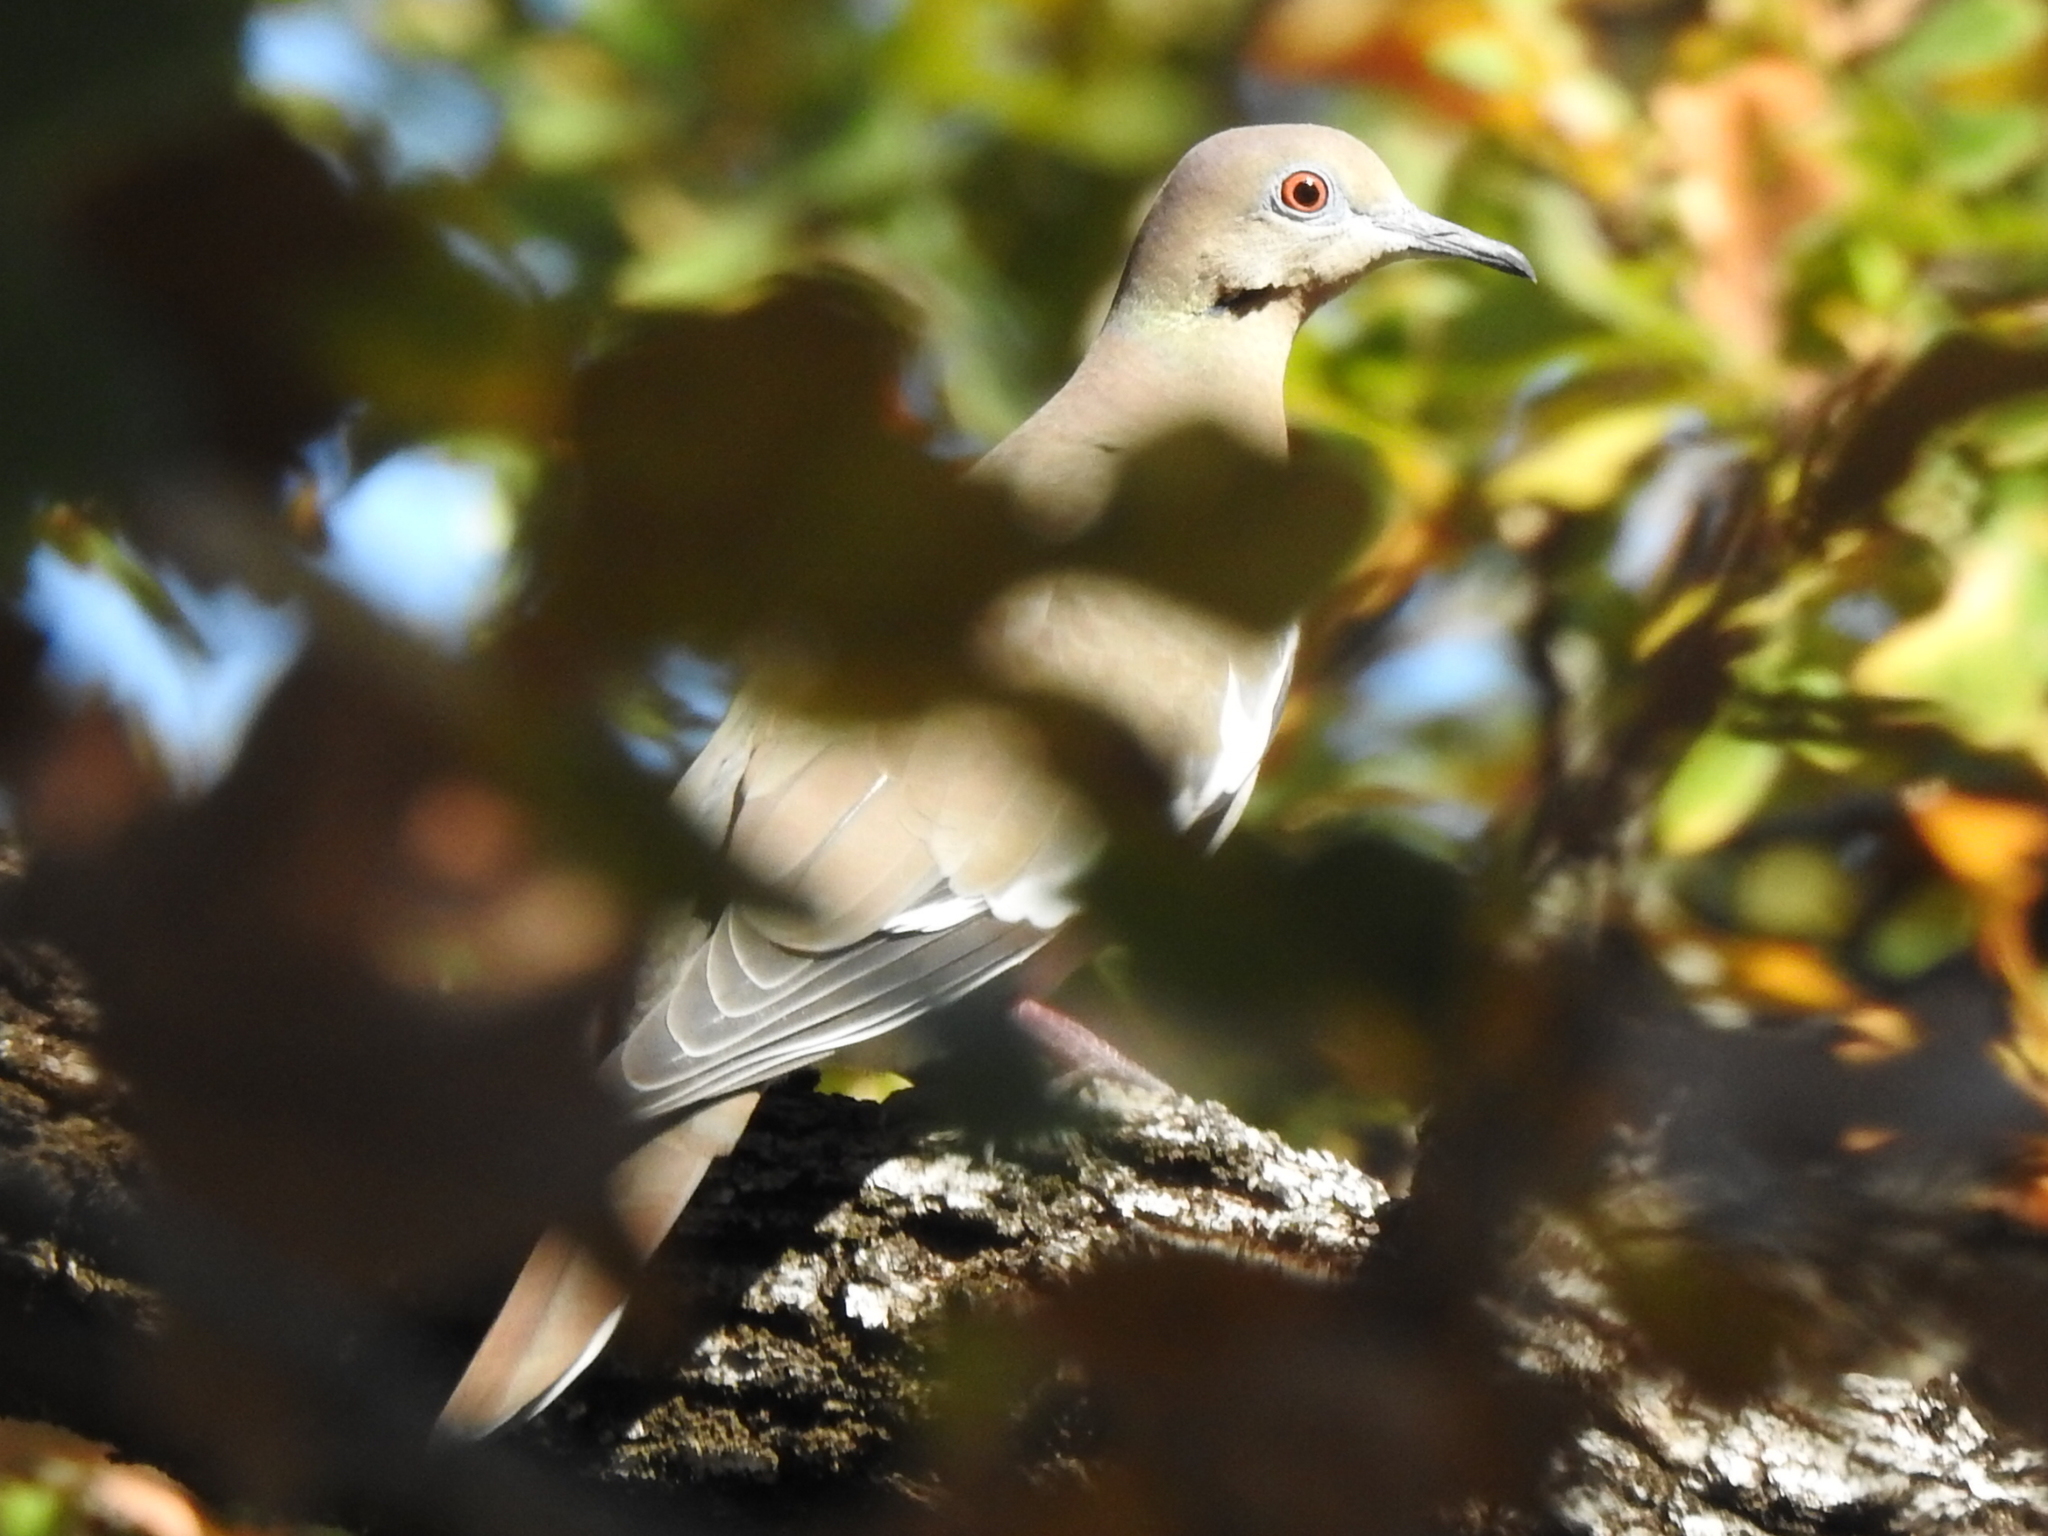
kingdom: Animalia
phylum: Chordata
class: Aves
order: Columbiformes
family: Columbidae
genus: Zenaida
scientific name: Zenaida asiatica
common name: White-winged dove
